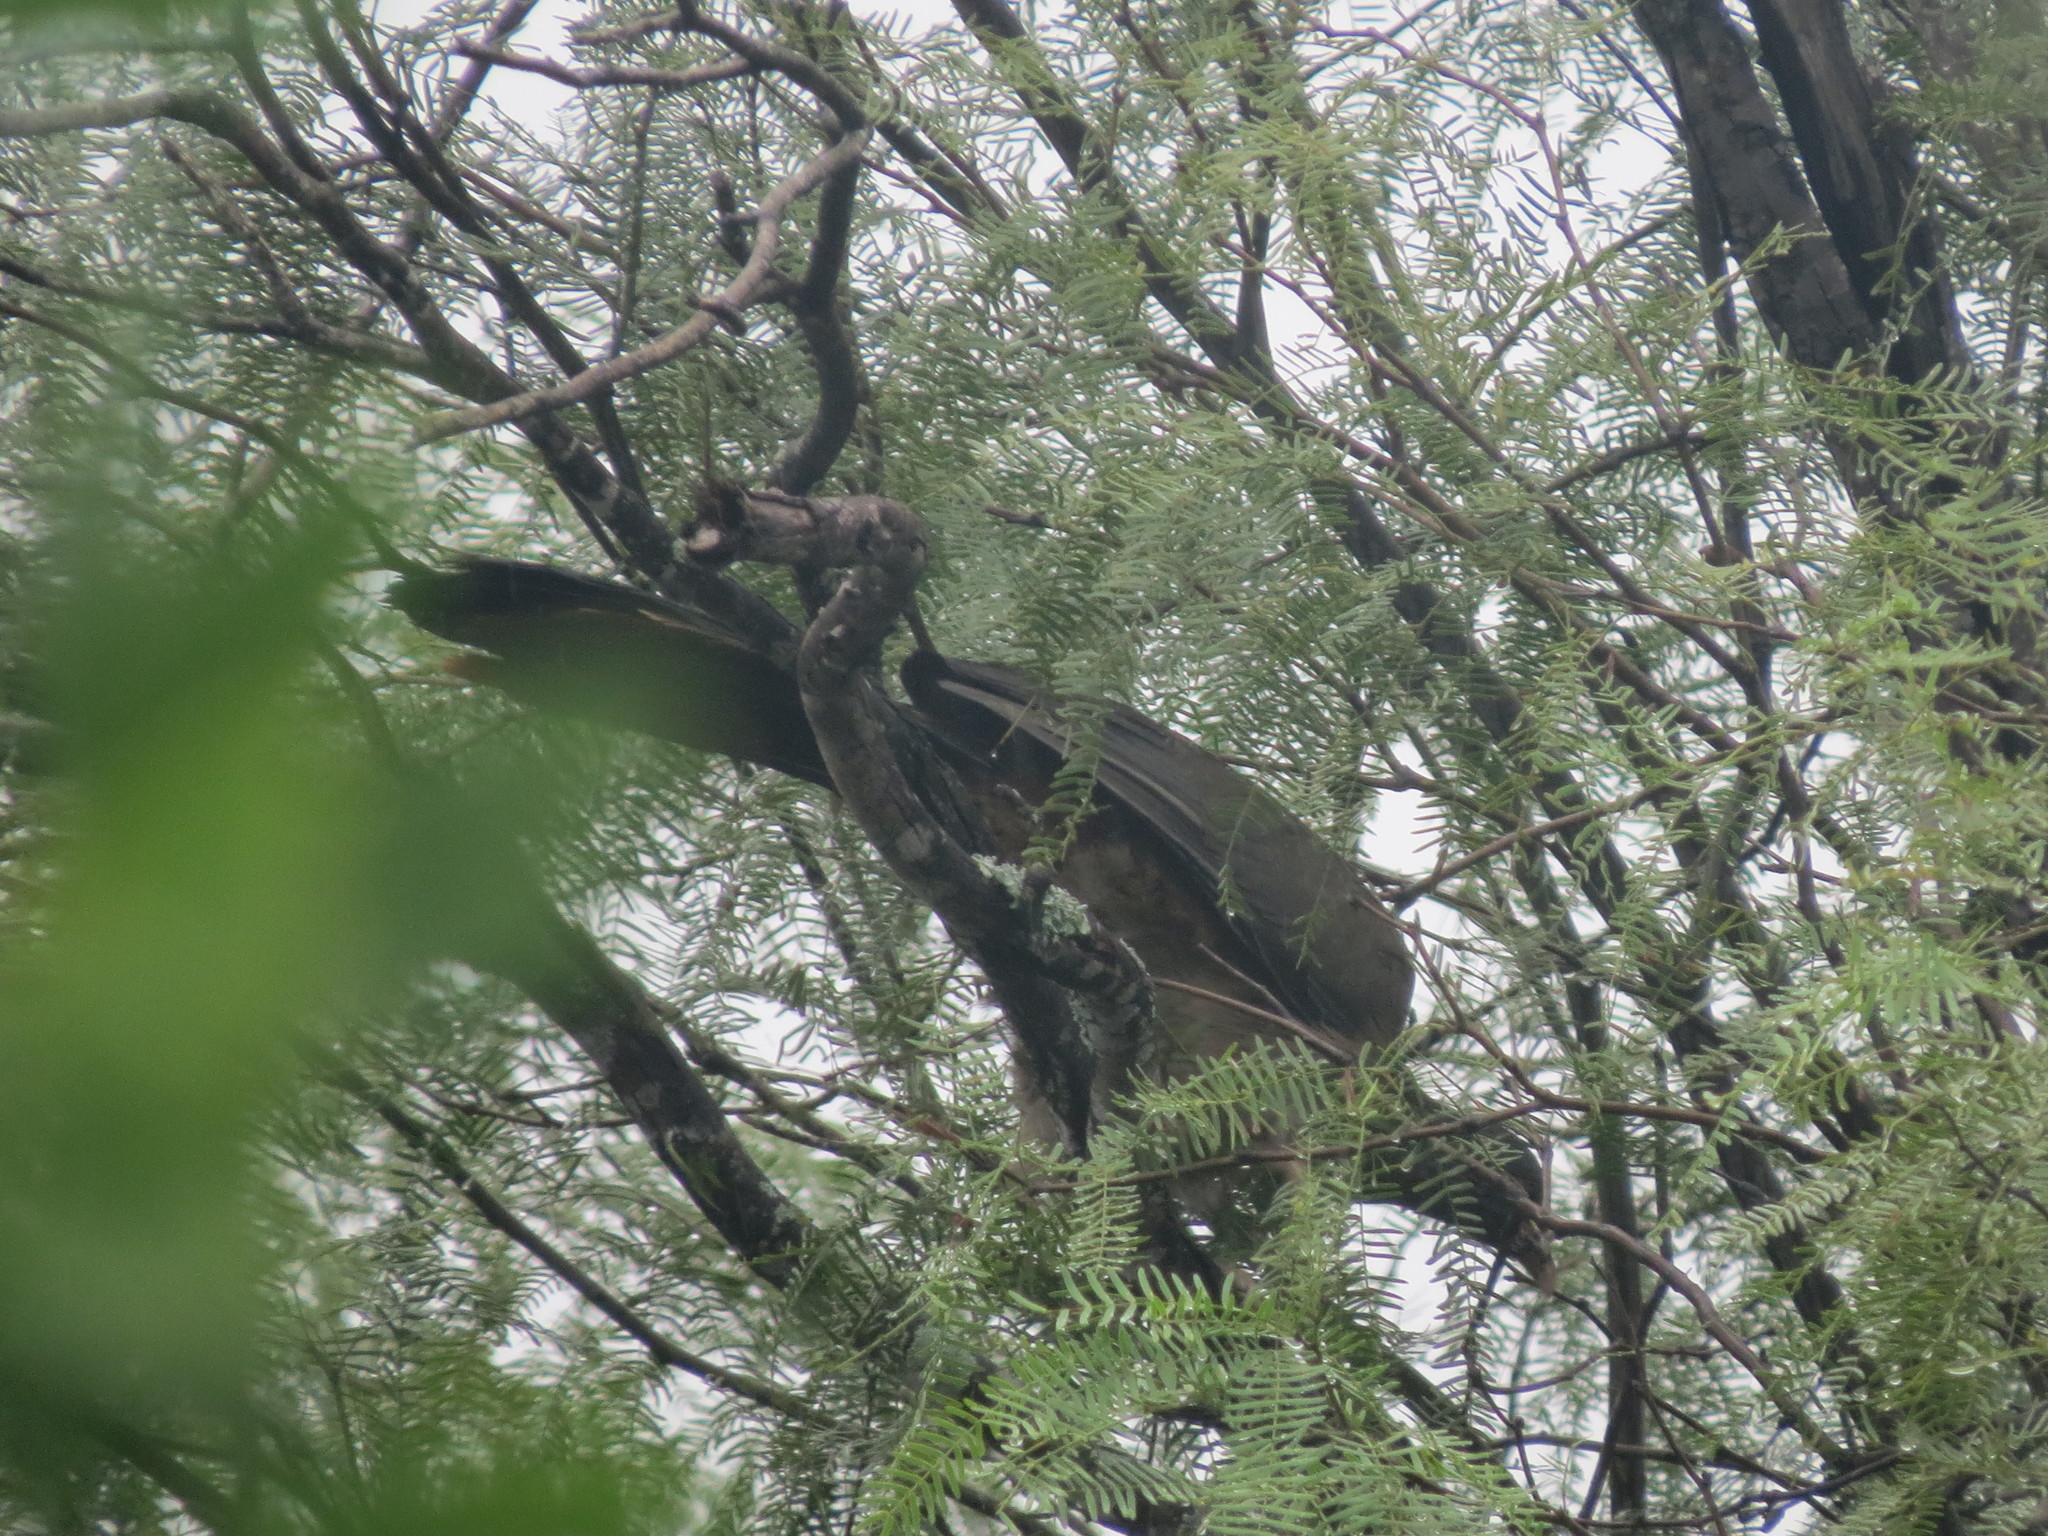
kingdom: Animalia
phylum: Chordata
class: Aves
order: Galliformes
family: Cracidae
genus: Ortalis
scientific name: Ortalis canicollis
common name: Chaco chachalaca
